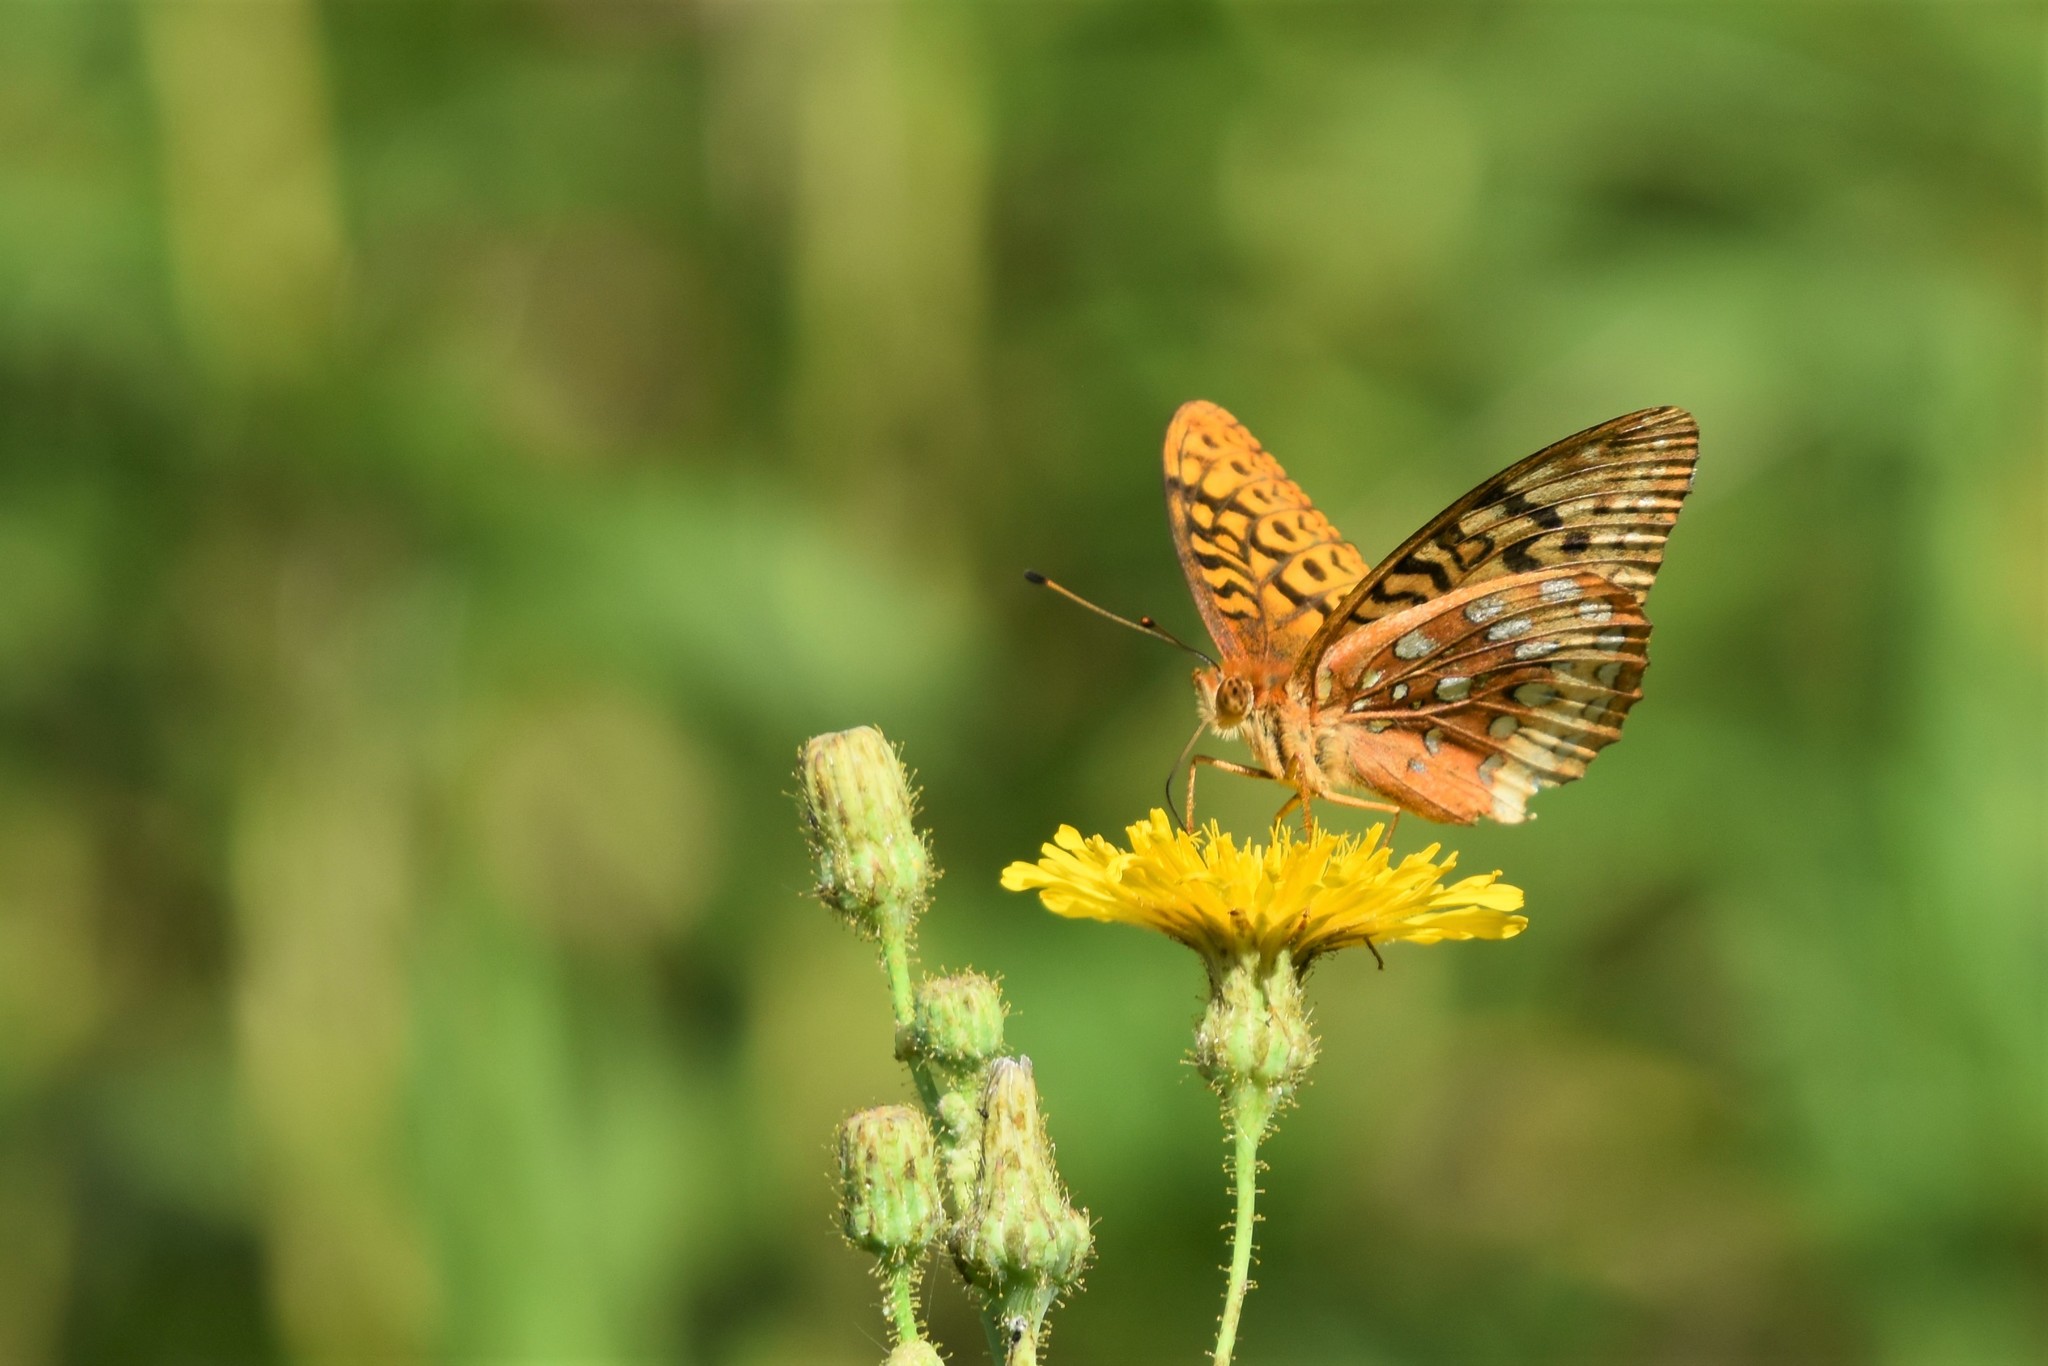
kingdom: Animalia
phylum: Arthropoda
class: Insecta
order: Lepidoptera
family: Nymphalidae
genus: Speyeria
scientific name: Speyeria cybele
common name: Great spangled fritillary
